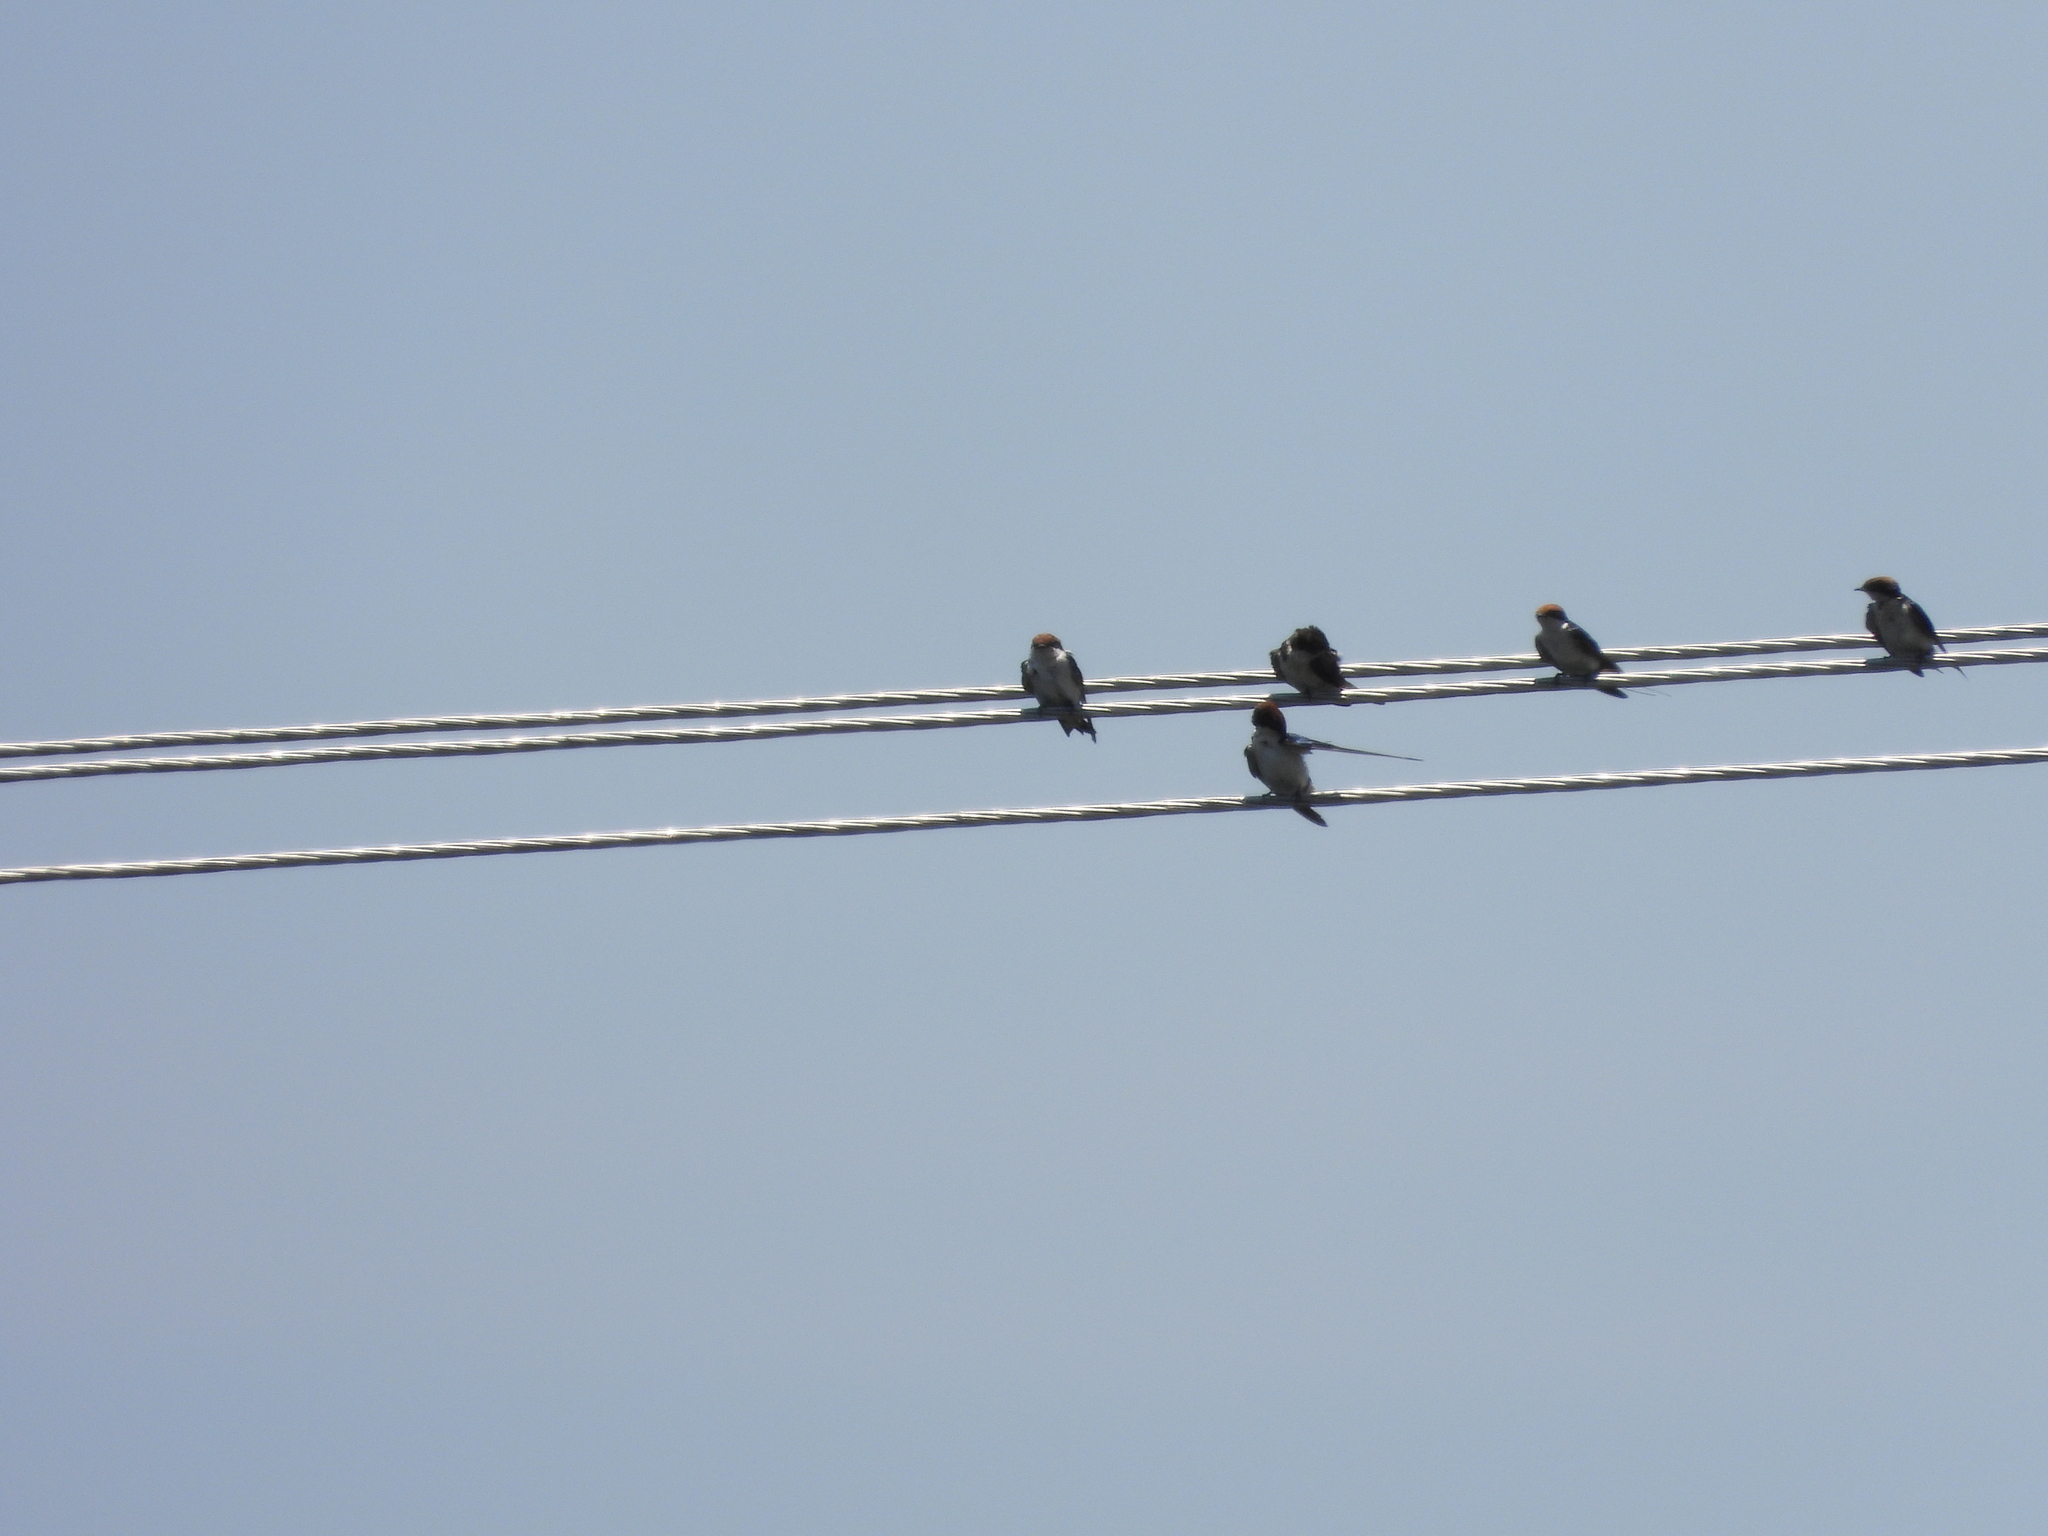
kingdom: Animalia
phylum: Chordata
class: Aves
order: Passeriformes
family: Hirundinidae
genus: Hirundo
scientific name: Hirundo smithii
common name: Wire-tailed swallow
